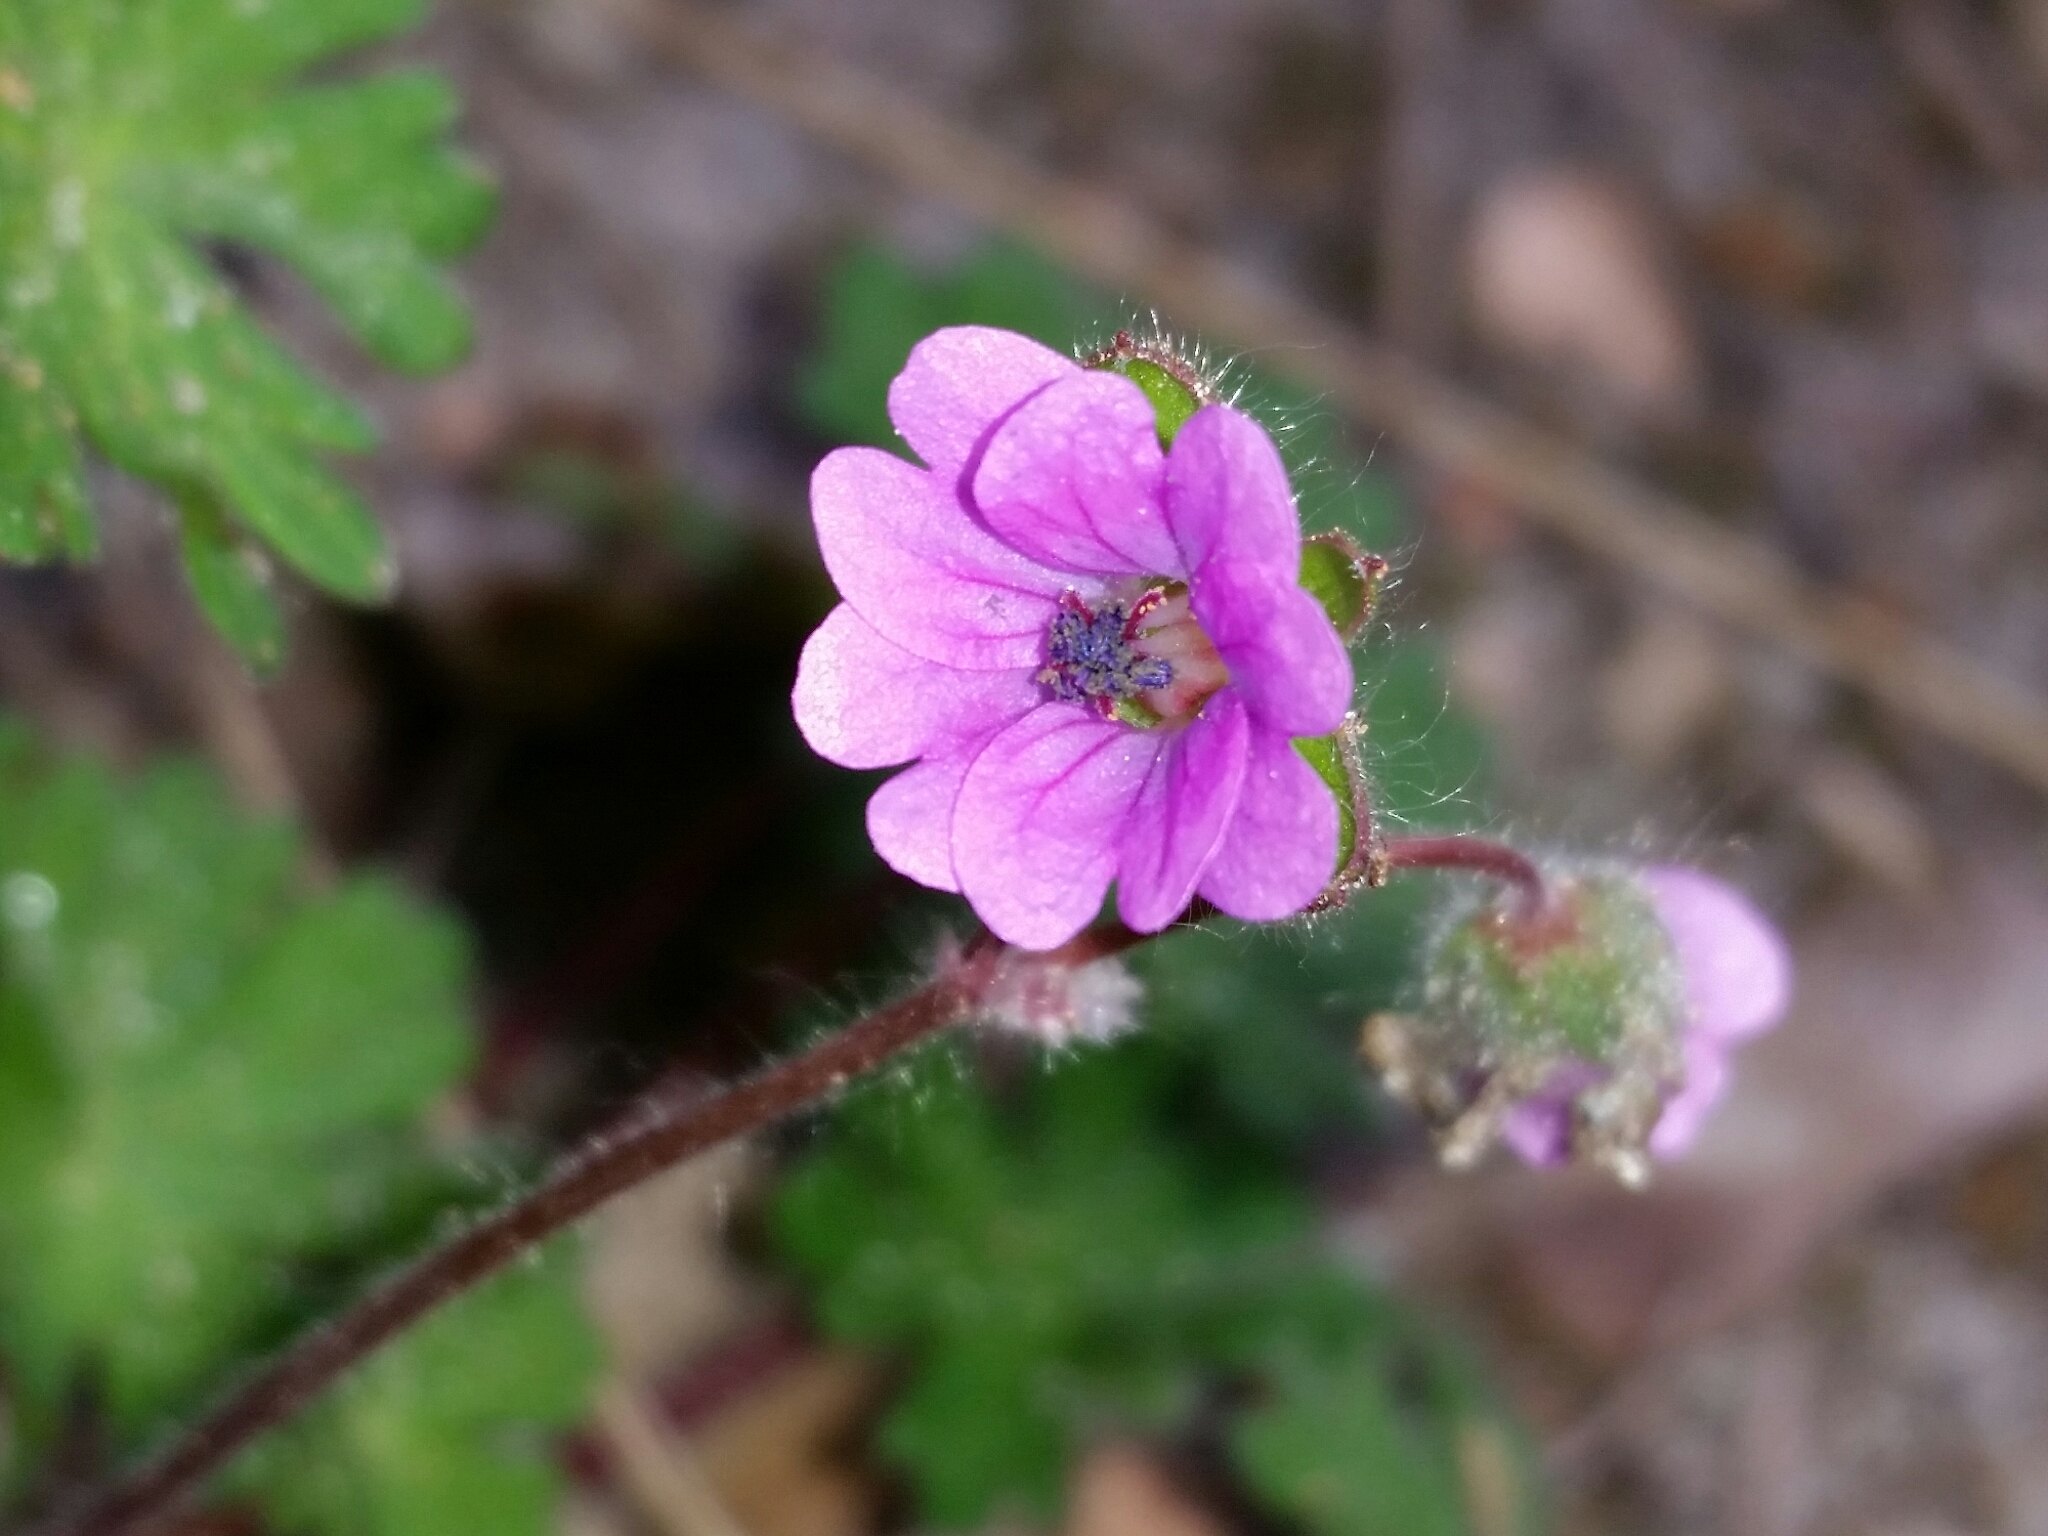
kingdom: Plantae
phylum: Tracheophyta
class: Magnoliopsida
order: Geraniales
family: Geraniaceae
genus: Geranium
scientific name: Geranium molle
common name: Dove's-foot crane's-bill
